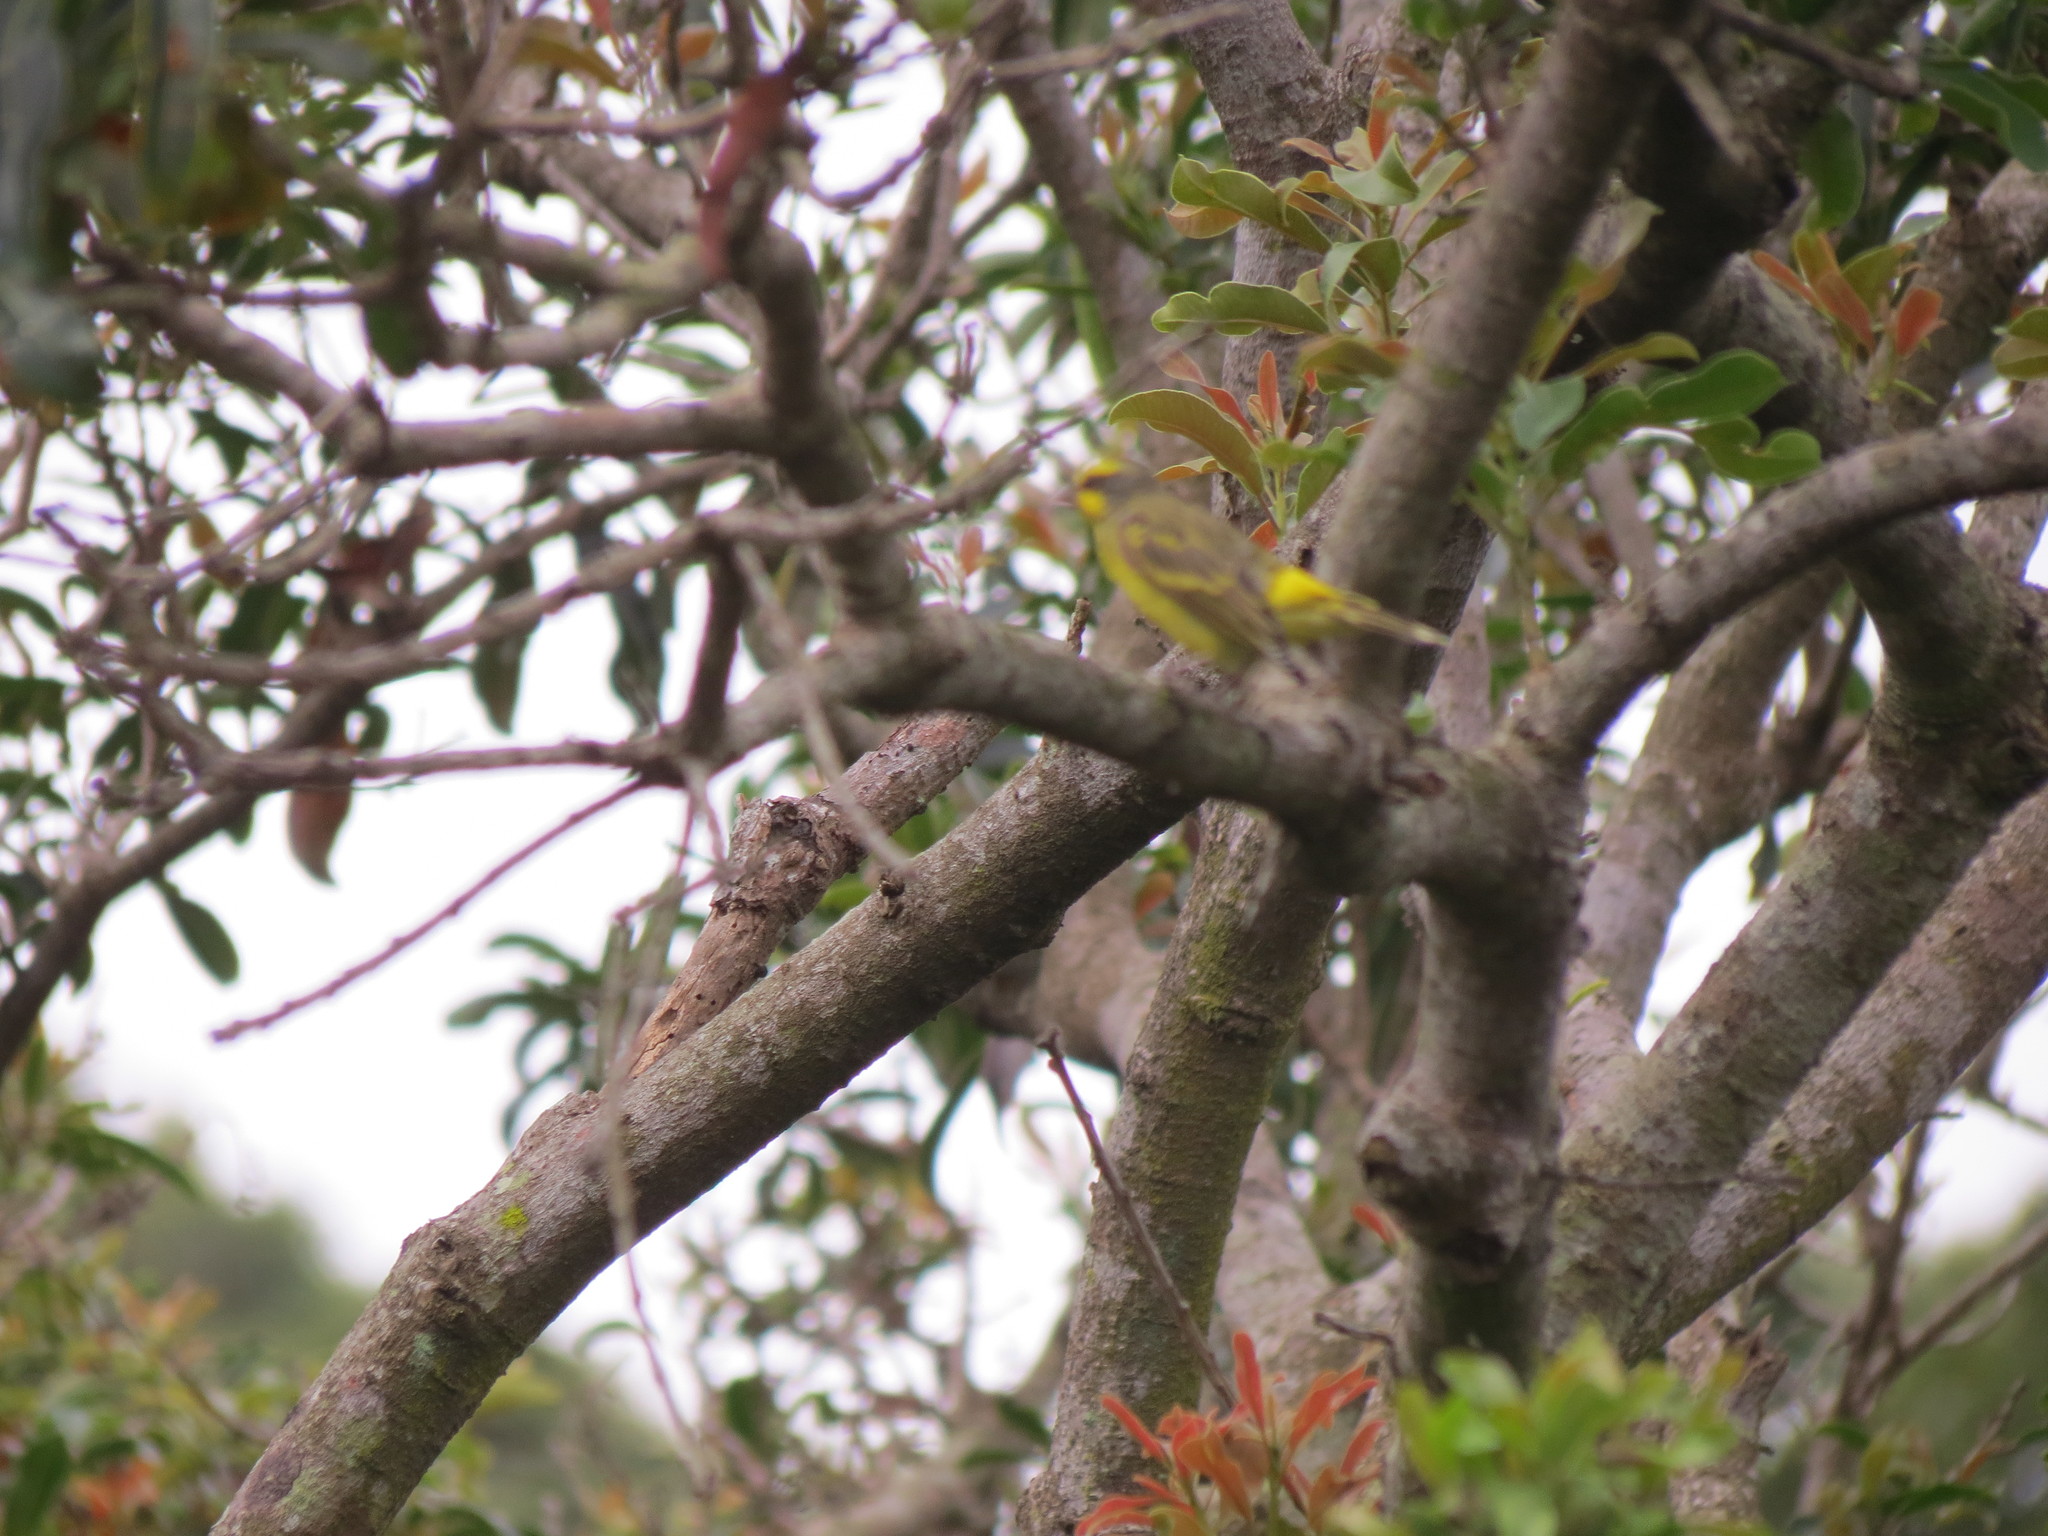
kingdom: Animalia
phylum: Chordata
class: Aves
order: Passeriformes
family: Fringillidae
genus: Crithagra
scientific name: Crithagra mozambica
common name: Yellow-fronted canary
